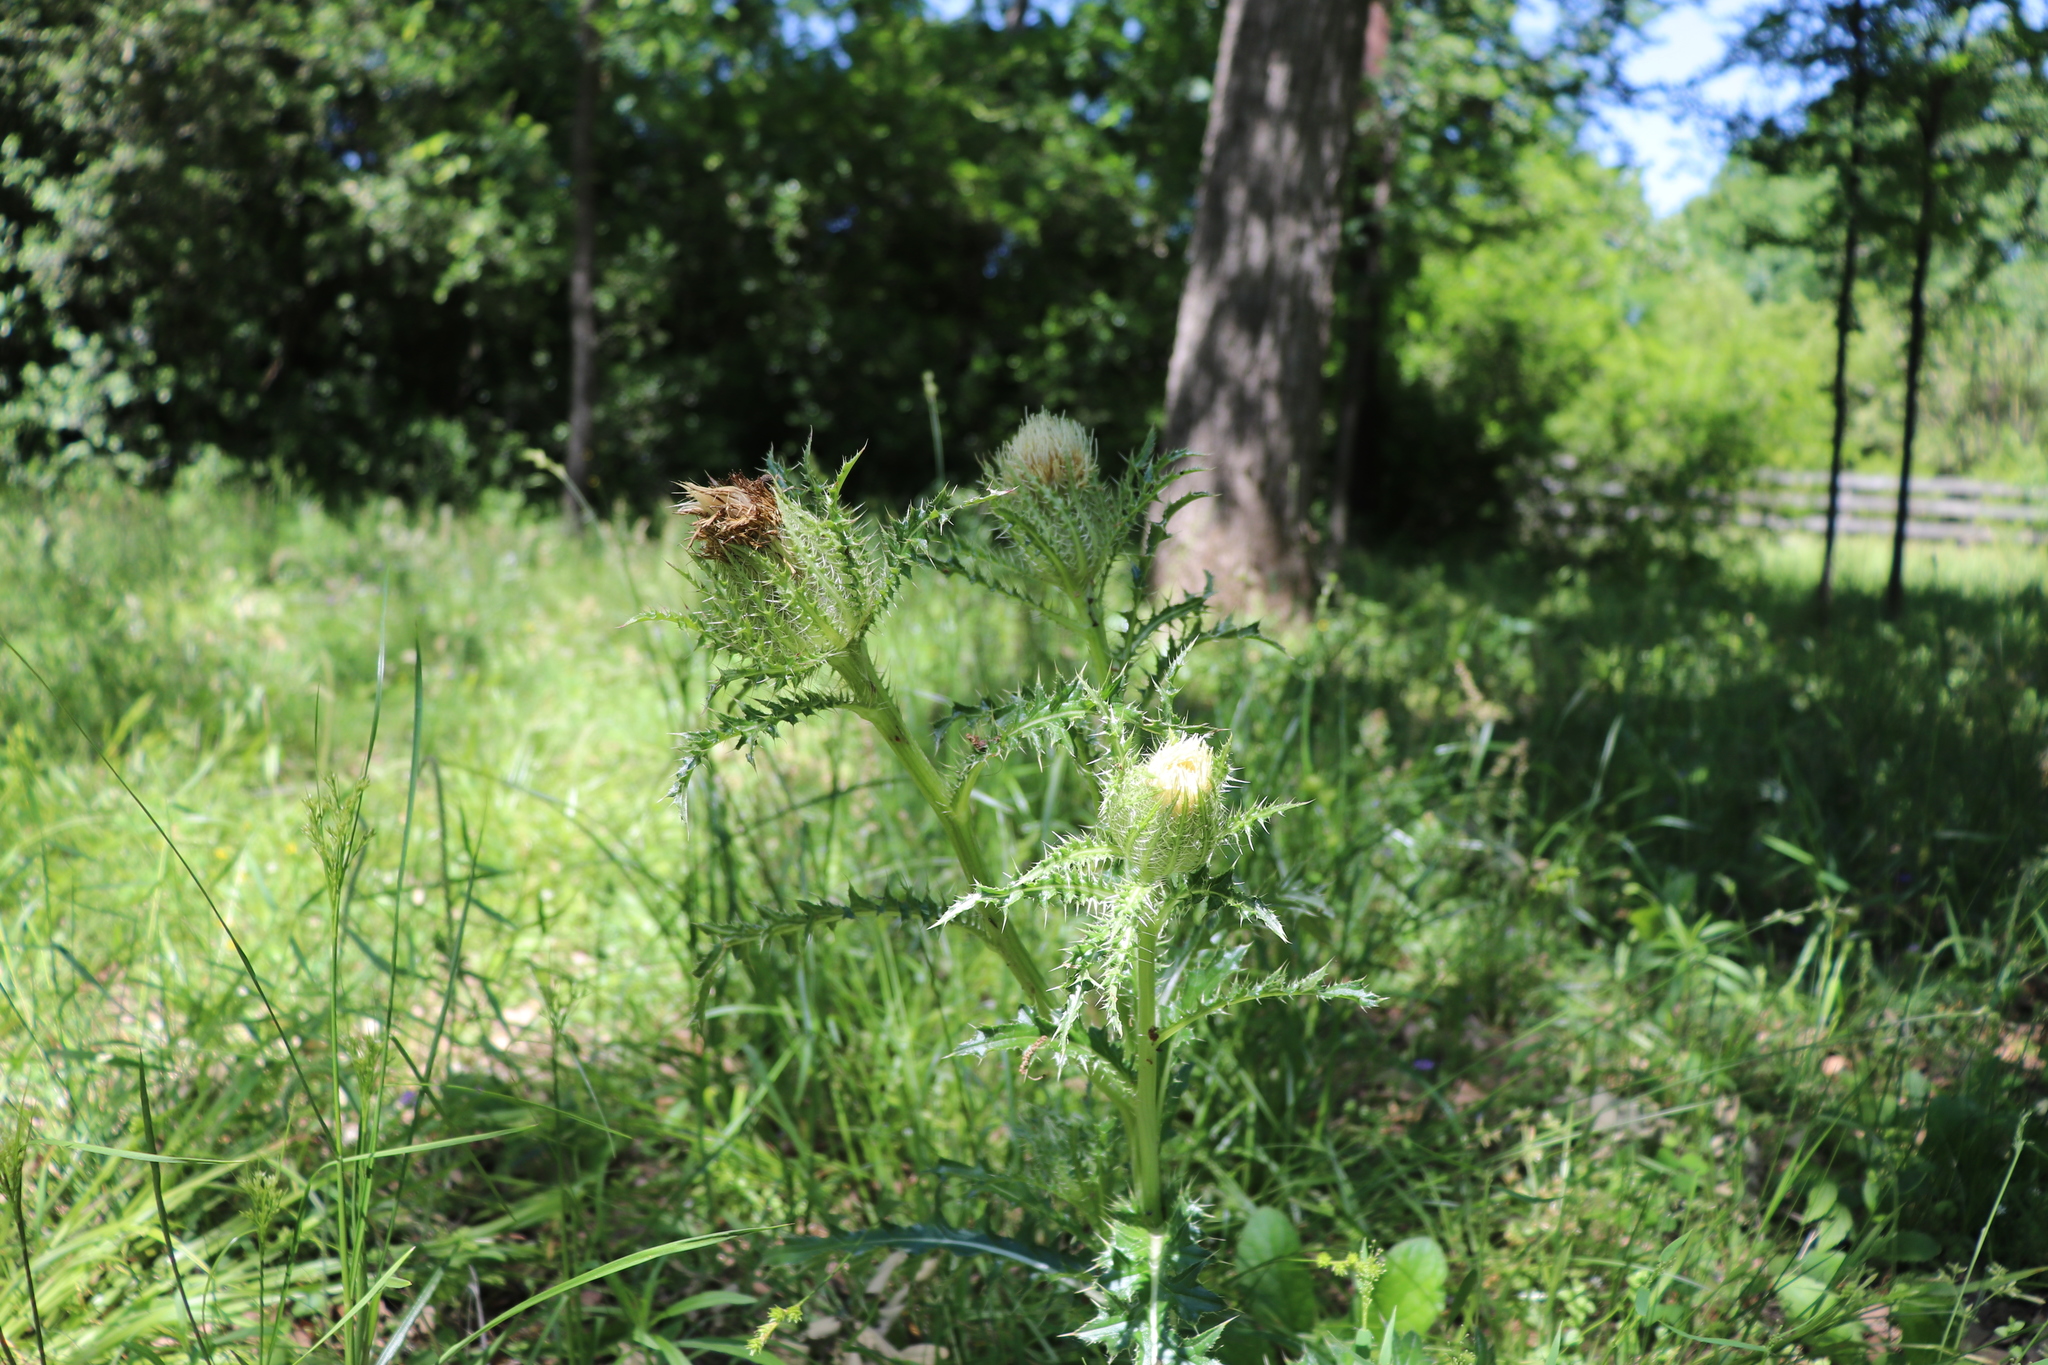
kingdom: Plantae
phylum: Tracheophyta
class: Magnoliopsida
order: Asterales
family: Asteraceae
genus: Cirsium
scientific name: Cirsium horridulum
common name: Bristly thistle
